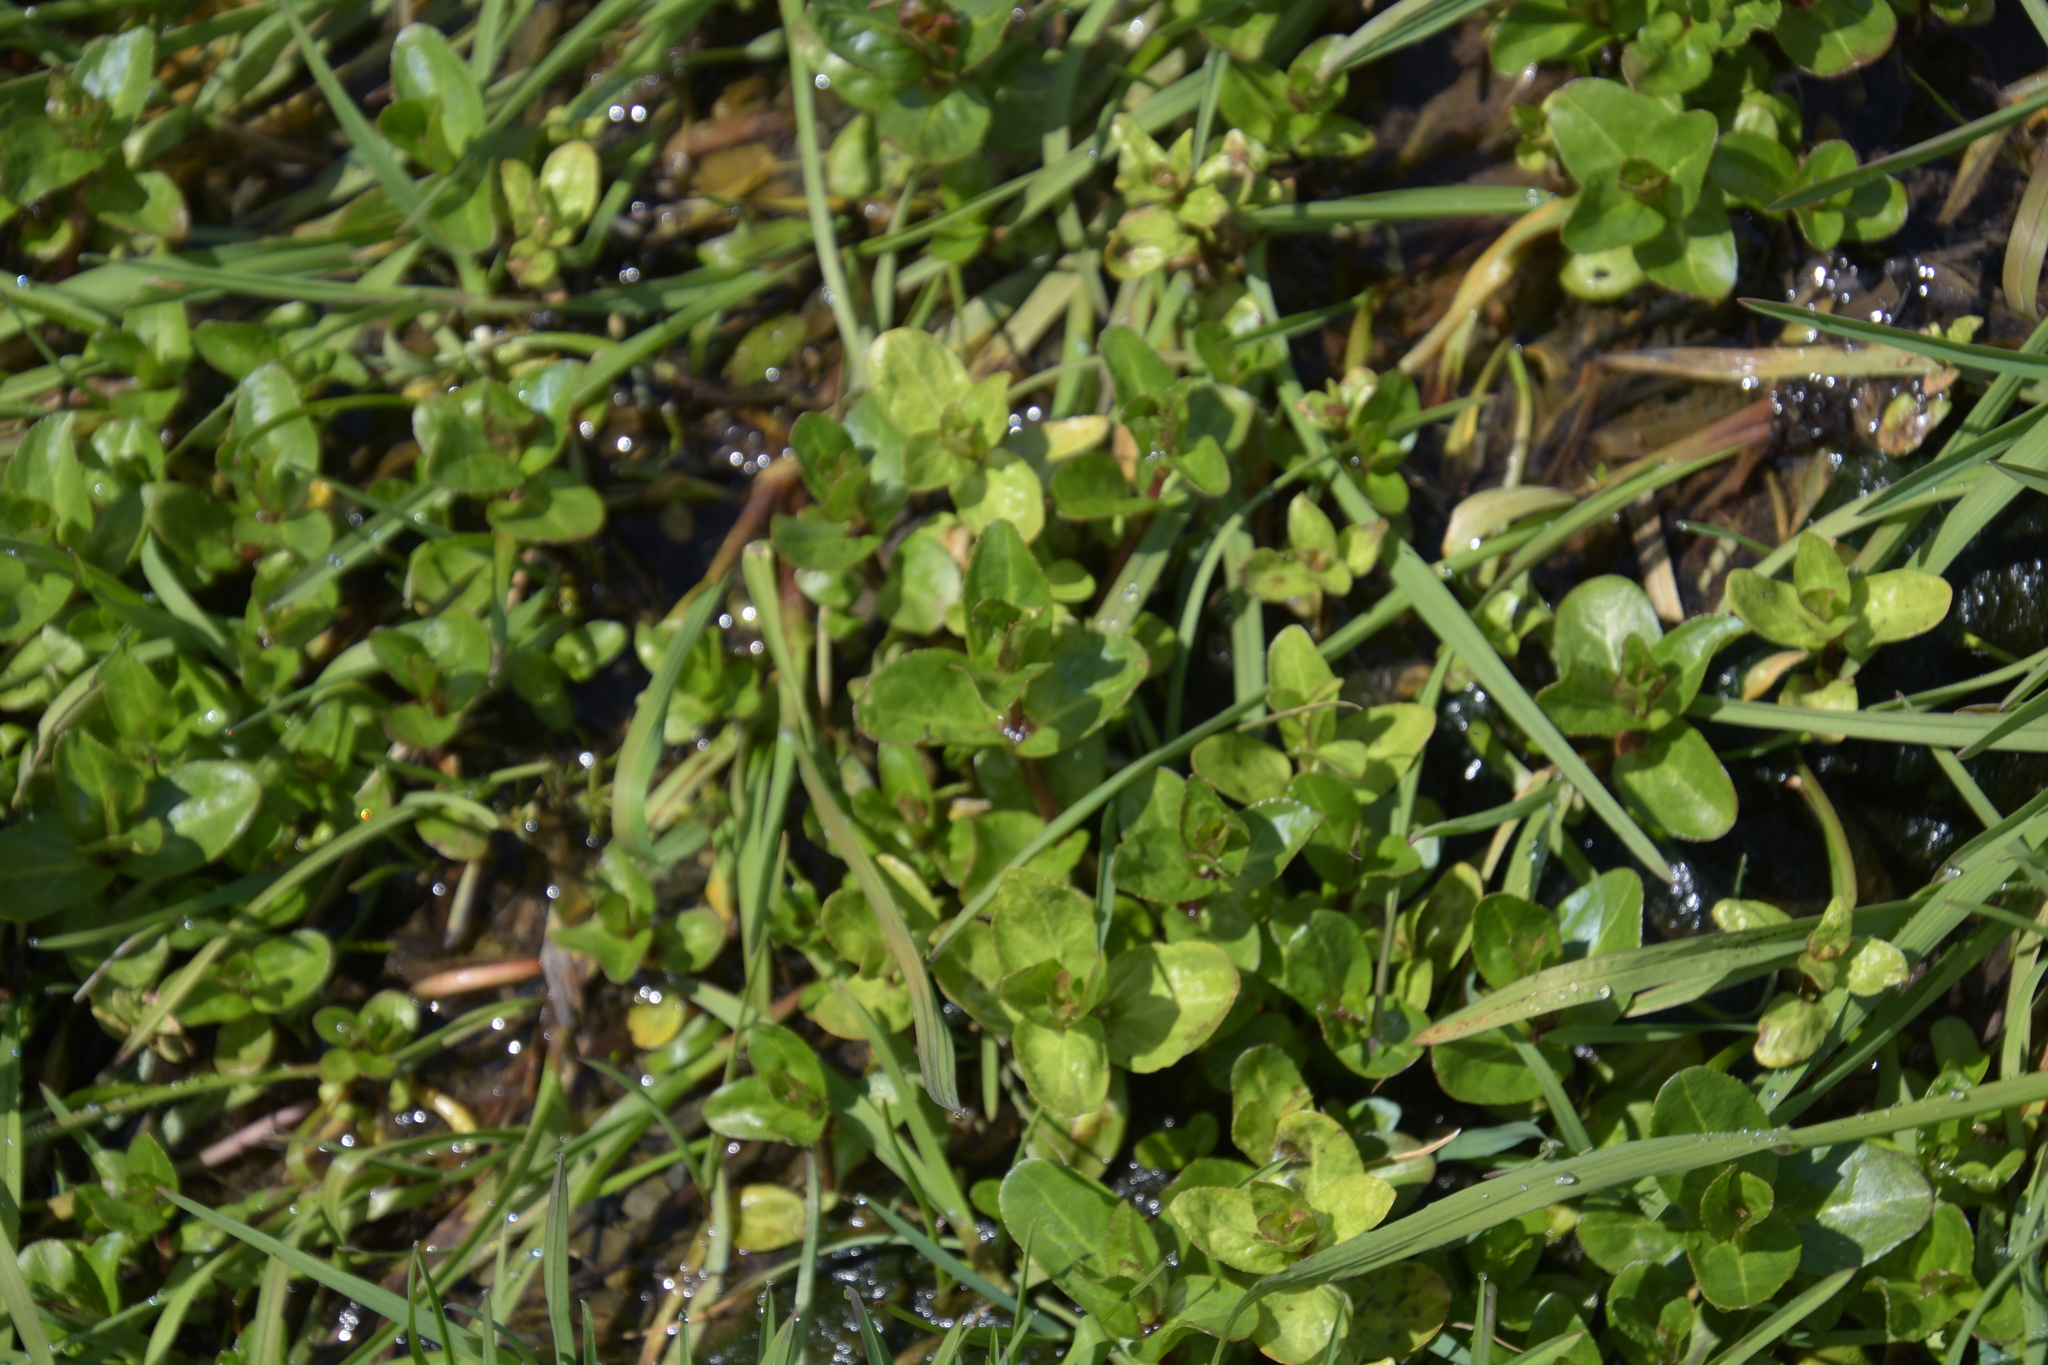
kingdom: Plantae
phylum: Tracheophyta
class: Magnoliopsida
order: Lamiales
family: Plantaginaceae
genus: Veronica
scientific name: Veronica beccabunga
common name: Brooklime
